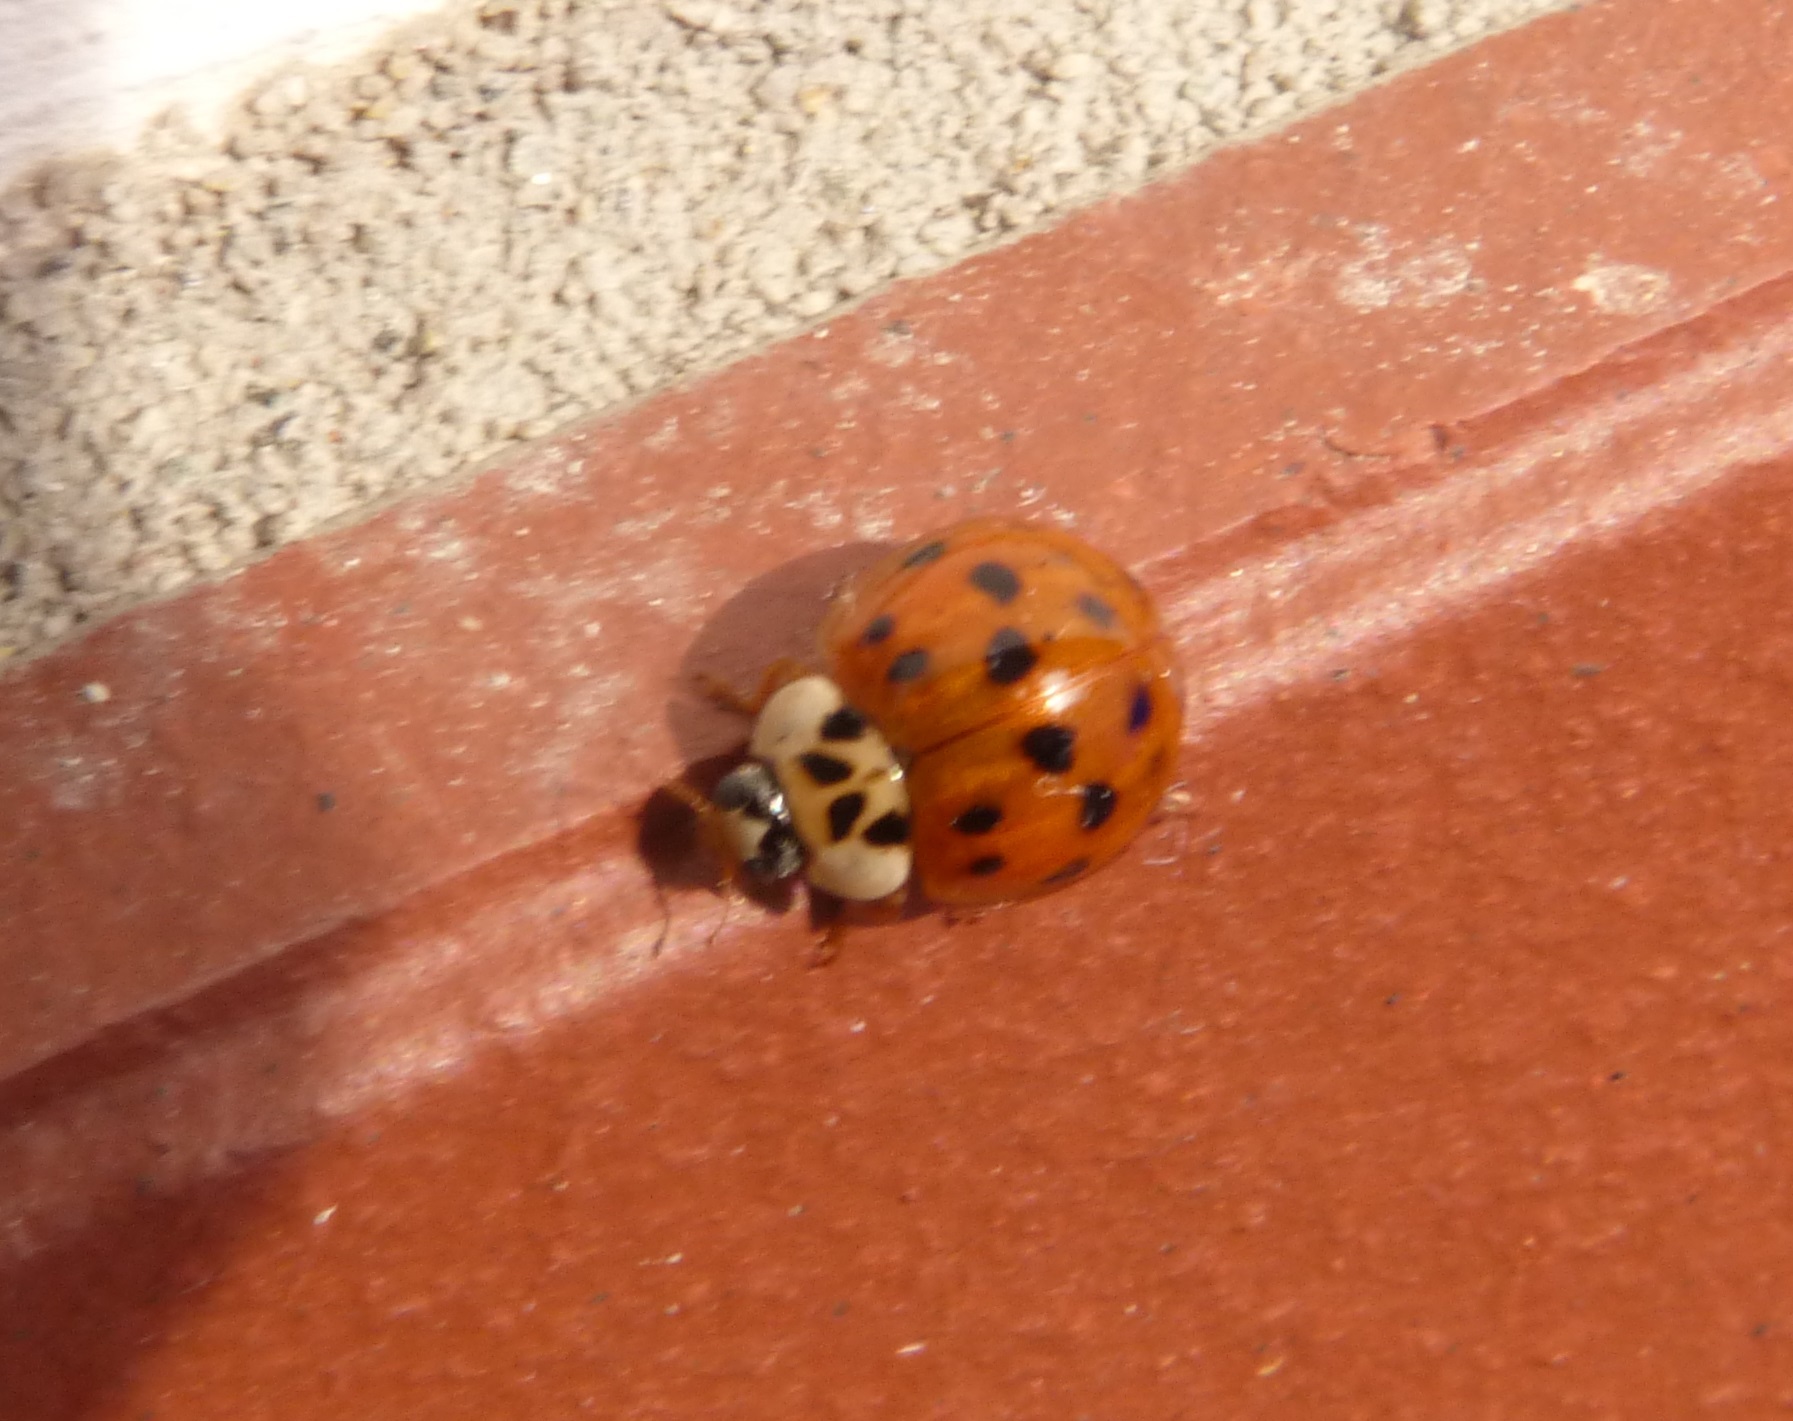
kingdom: Animalia
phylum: Arthropoda
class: Insecta
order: Coleoptera
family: Coccinellidae
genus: Harmonia
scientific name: Harmonia axyridis
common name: Harlequin ladybird
